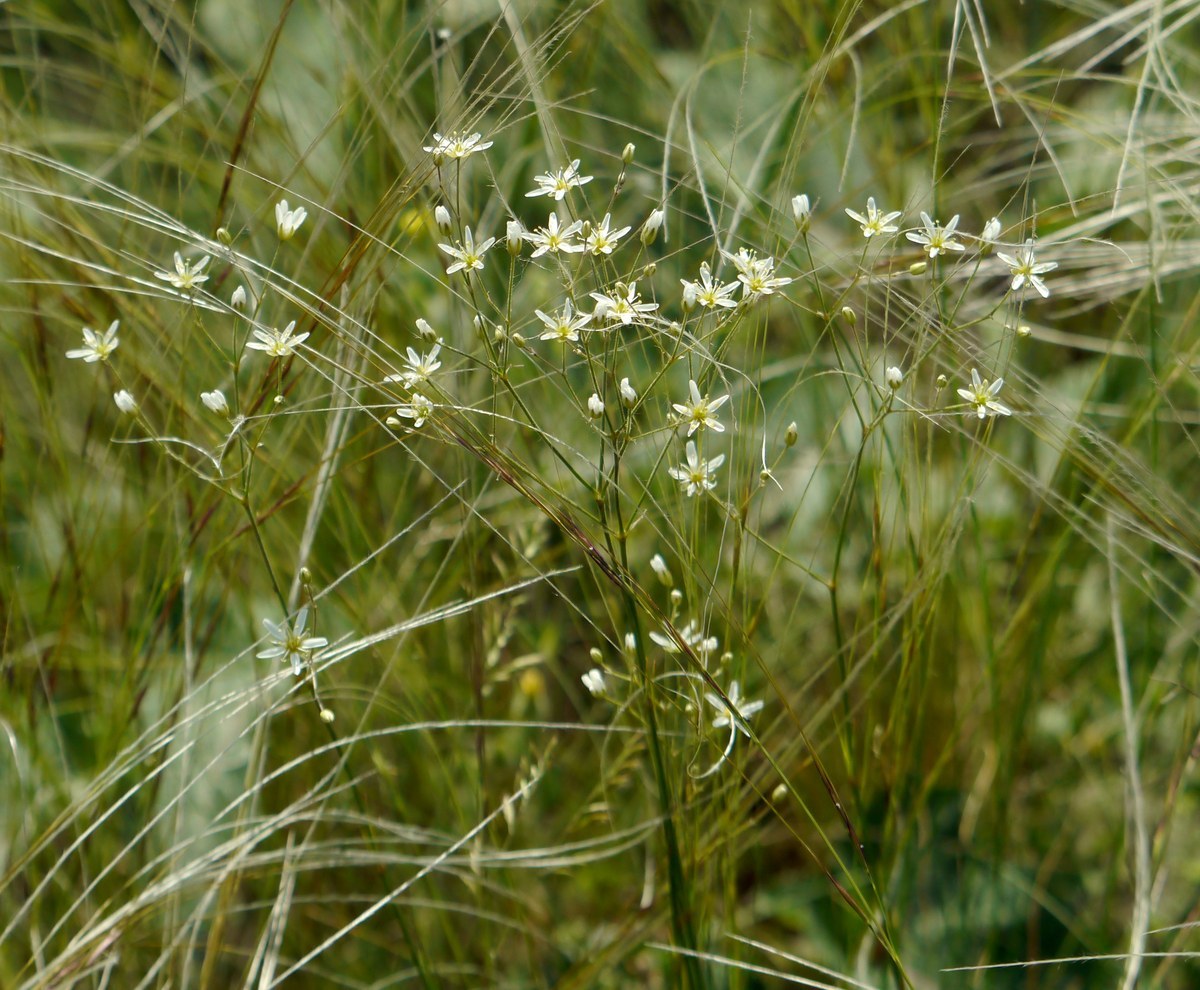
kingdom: Plantae
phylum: Tracheophyta
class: Magnoliopsida
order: Caryophyllales
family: Caryophyllaceae
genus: Eremogone
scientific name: Eremogone biebersteinii
